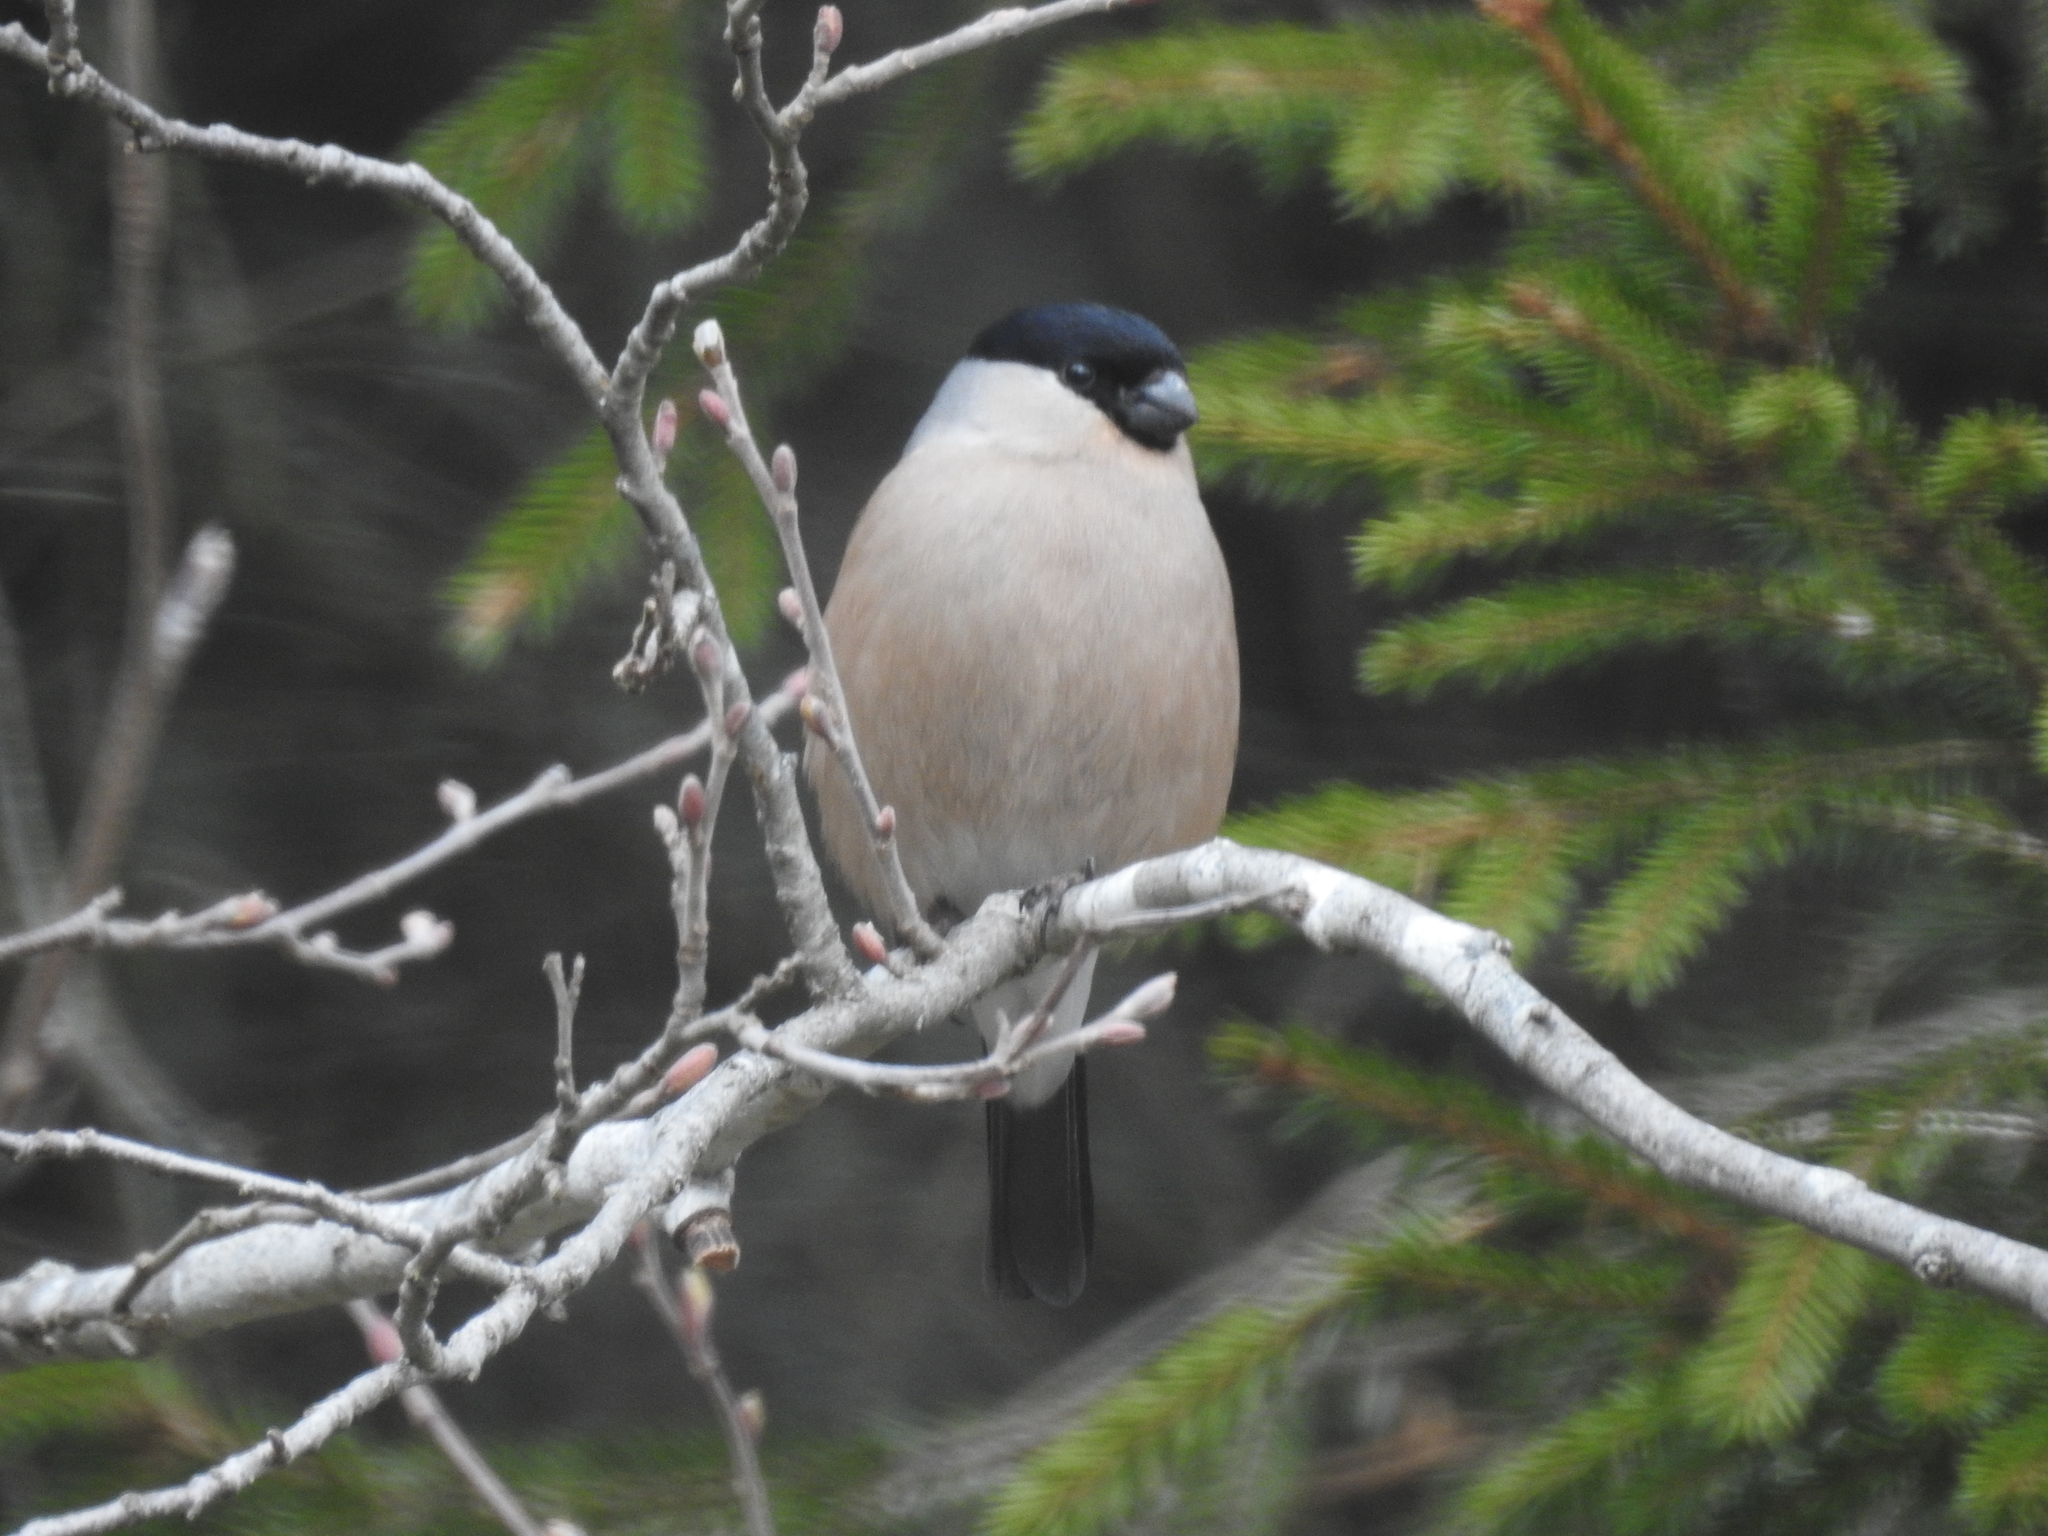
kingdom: Animalia
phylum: Chordata
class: Aves
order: Passeriformes
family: Fringillidae
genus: Pyrrhula
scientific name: Pyrrhula pyrrhula
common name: Eurasian bullfinch
